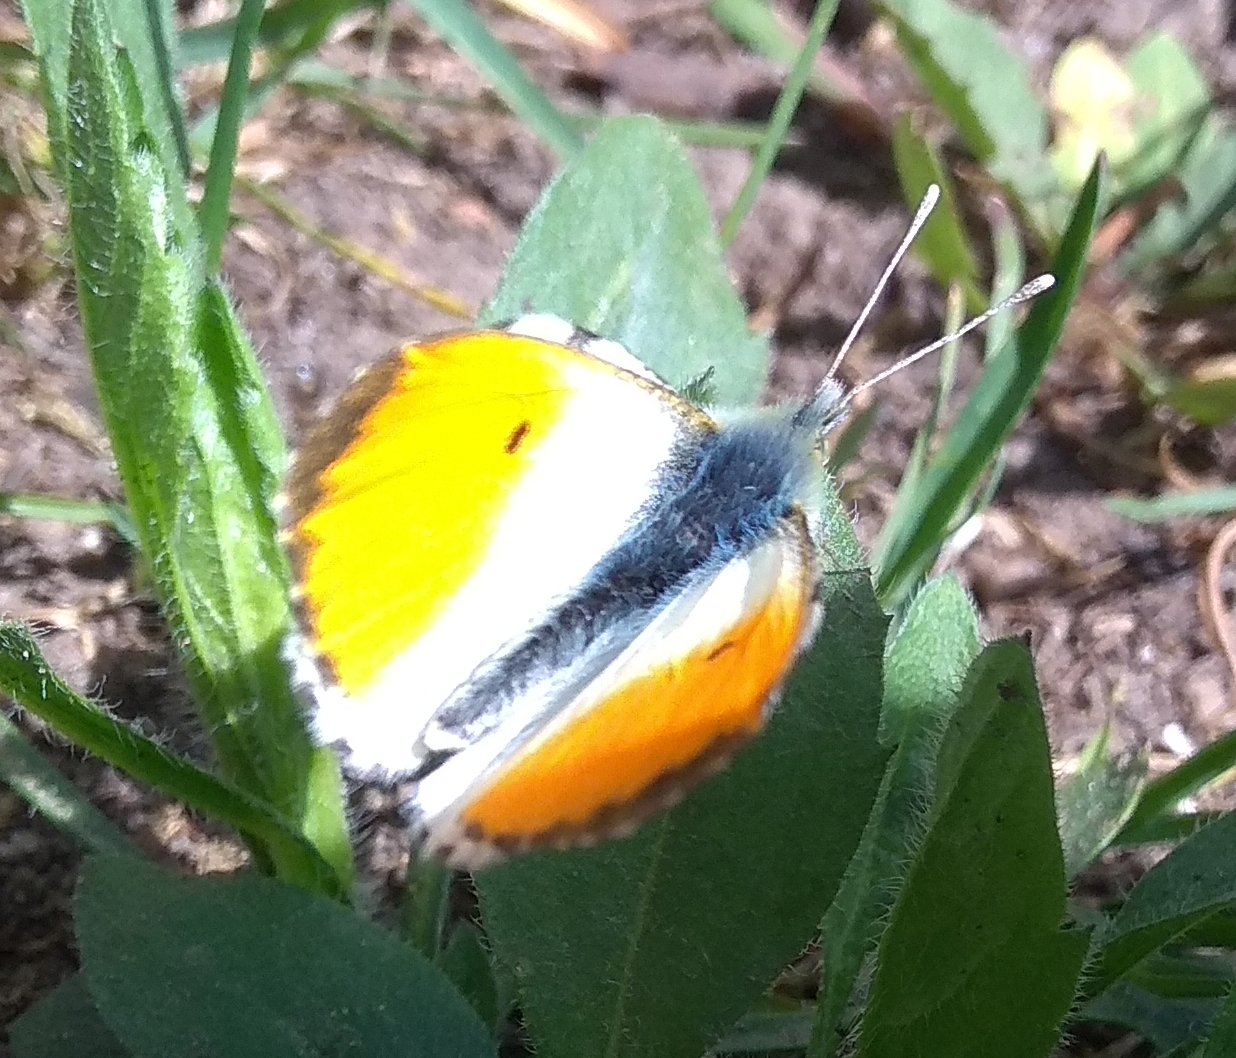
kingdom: Animalia
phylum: Arthropoda
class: Insecta
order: Lepidoptera
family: Pieridae
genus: Anthocharis
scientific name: Anthocharis cardamines
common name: Orange-tip
